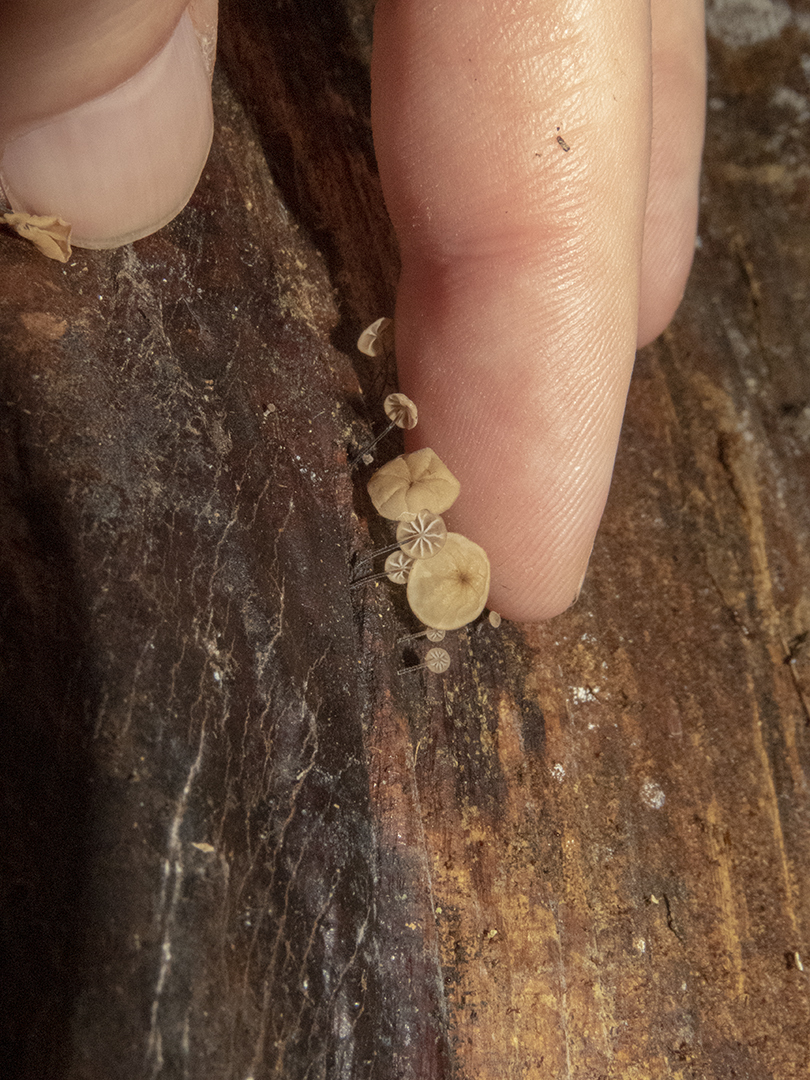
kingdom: Fungi
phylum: Basidiomycota
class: Agaricomycetes
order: Agaricales
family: Physalacriaceae
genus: Cryptomarasmius
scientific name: Cryptomarasmius rhopalostylidis
